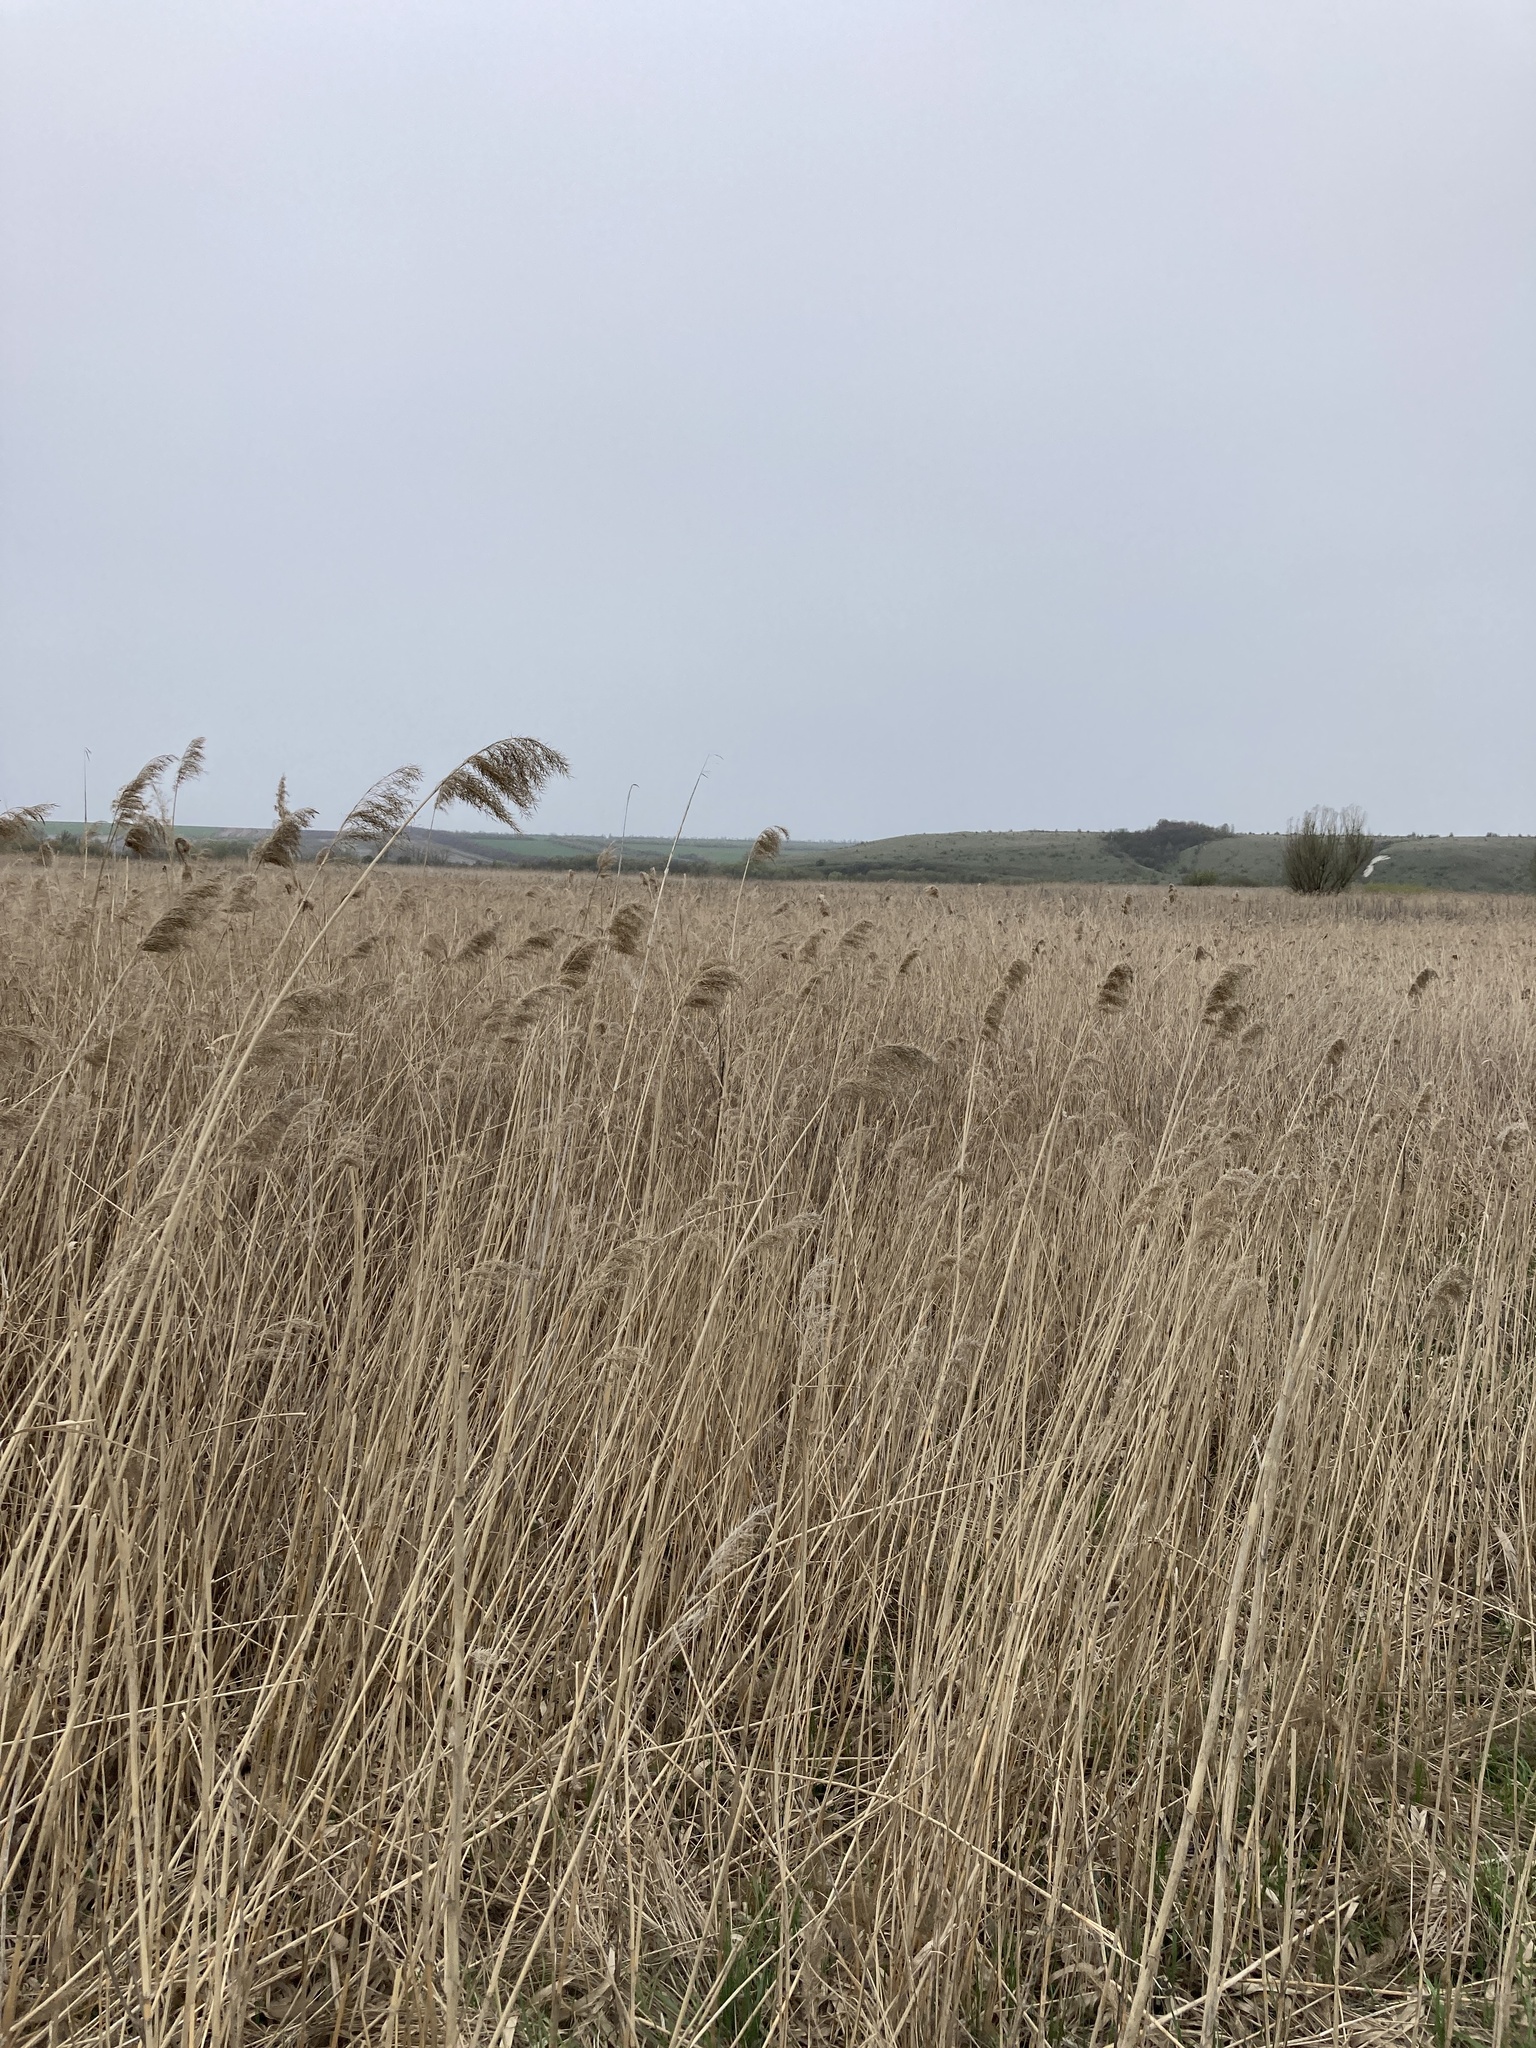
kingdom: Plantae
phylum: Tracheophyta
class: Liliopsida
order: Poales
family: Poaceae
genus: Phragmites
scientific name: Phragmites australis
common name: Common reed
